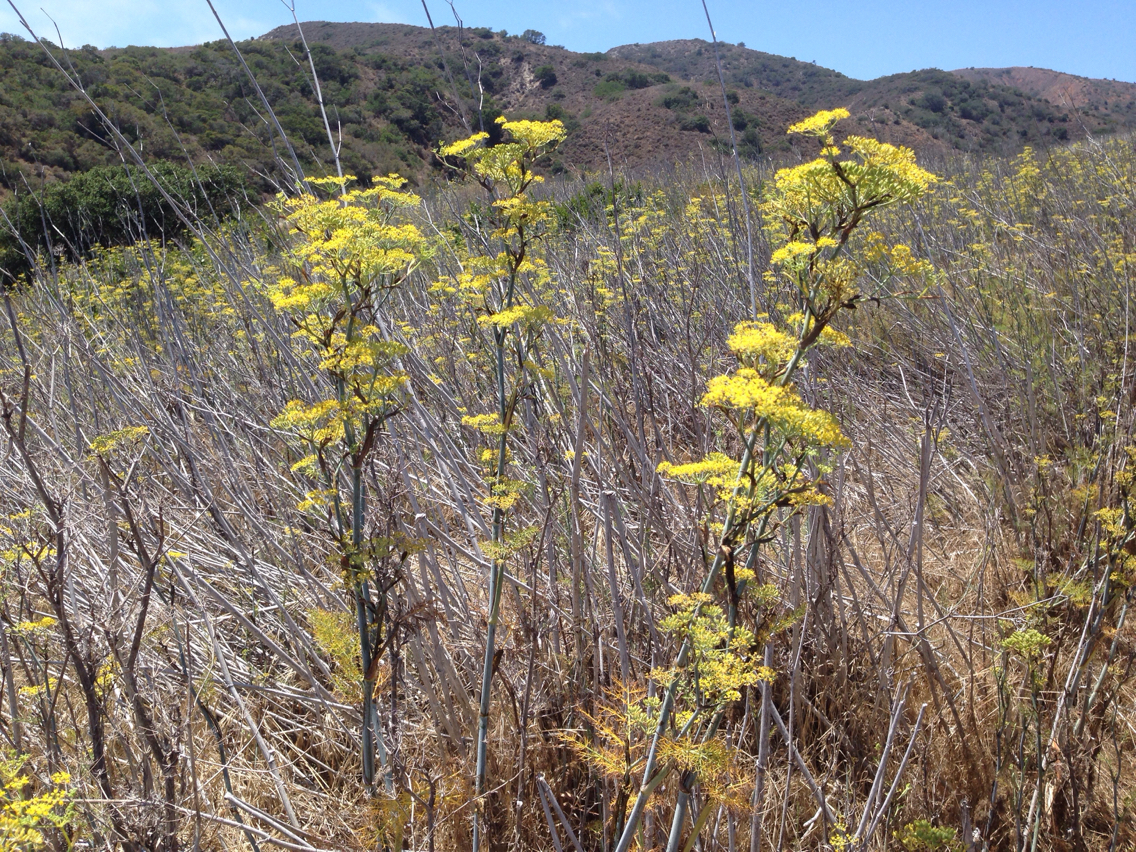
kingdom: Plantae
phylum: Tracheophyta
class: Magnoliopsida
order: Apiales
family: Apiaceae
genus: Foeniculum
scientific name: Foeniculum vulgare
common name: Fennel
